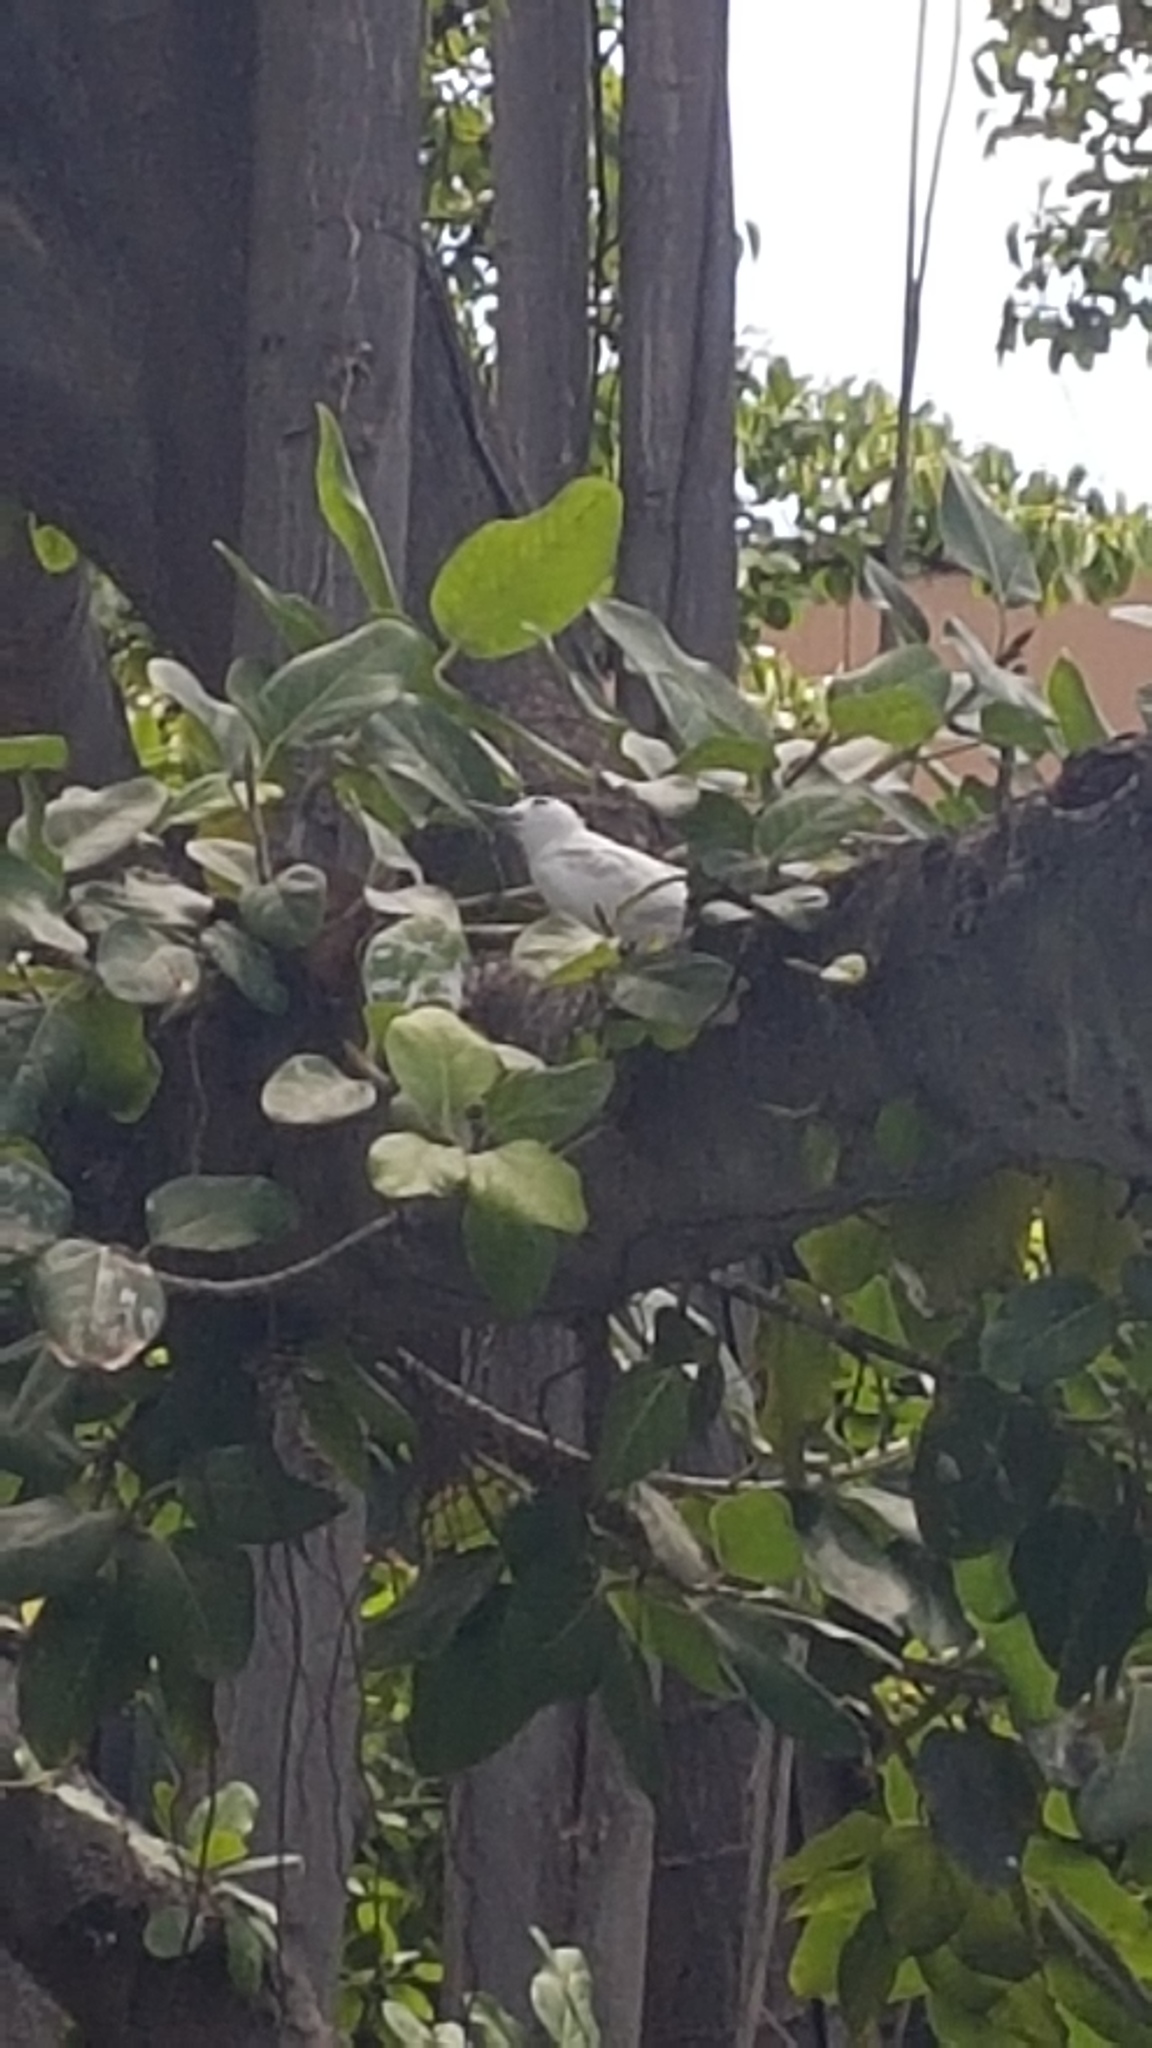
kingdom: Animalia
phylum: Chordata
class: Aves
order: Charadriiformes
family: Laridae
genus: Gygis
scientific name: Gygis alba
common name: White tern
